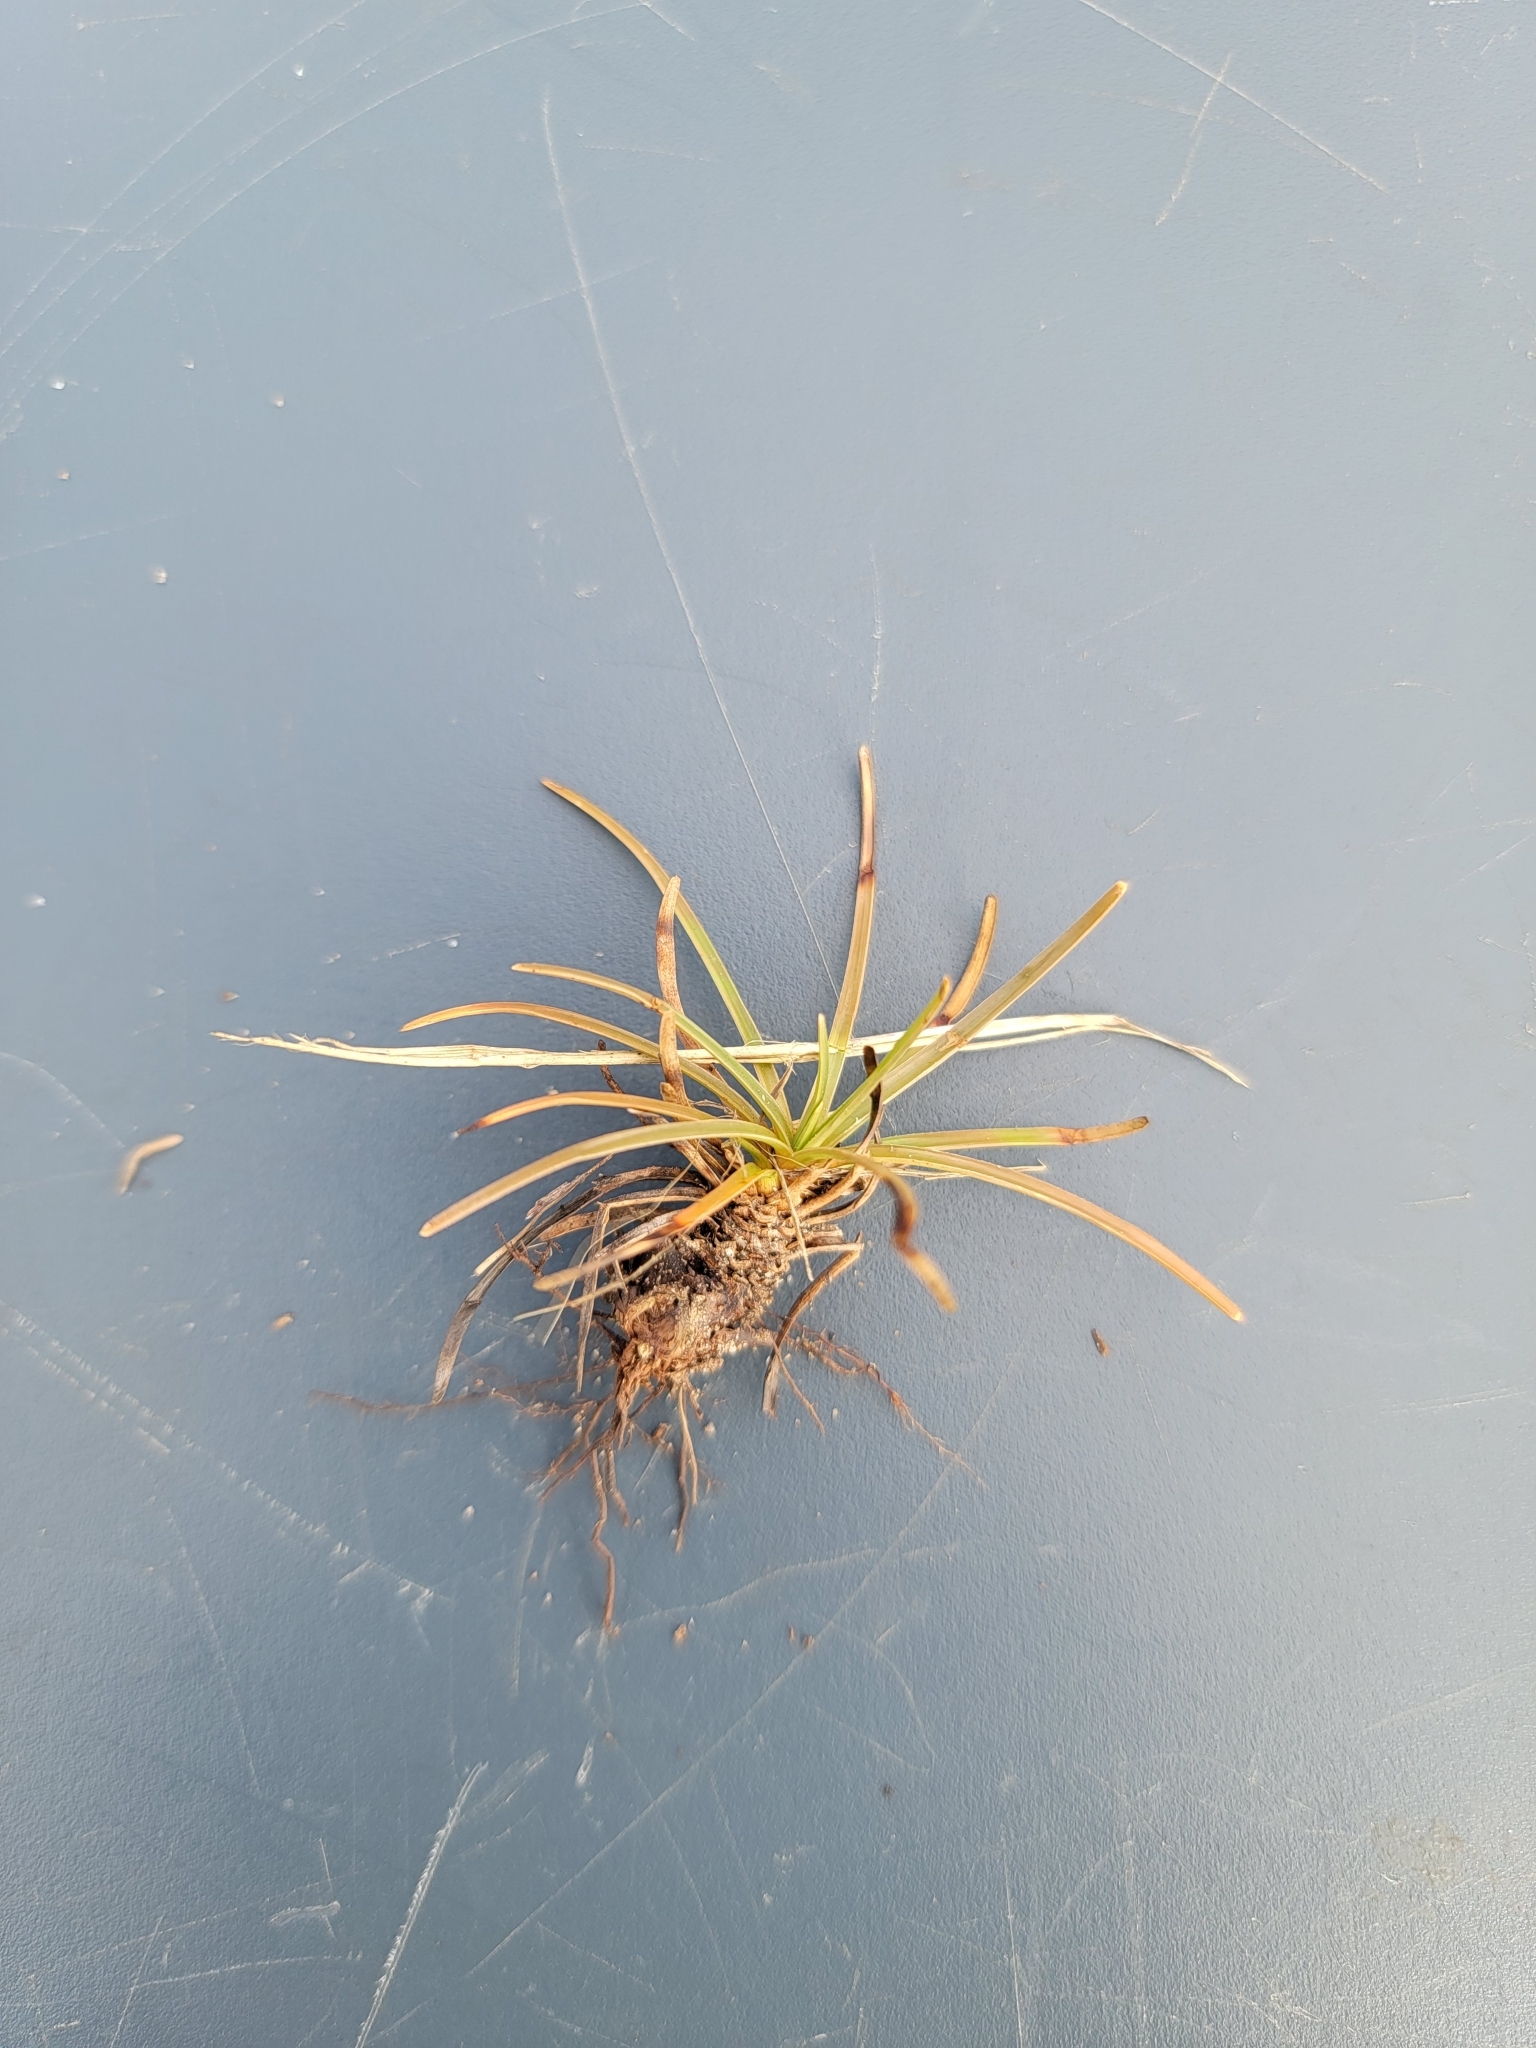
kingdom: Plantae
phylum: Tracheophyta
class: Liliopsida
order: Poales
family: Cyperaceae
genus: Fimbristylis
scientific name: Fimbristylis cymosa
